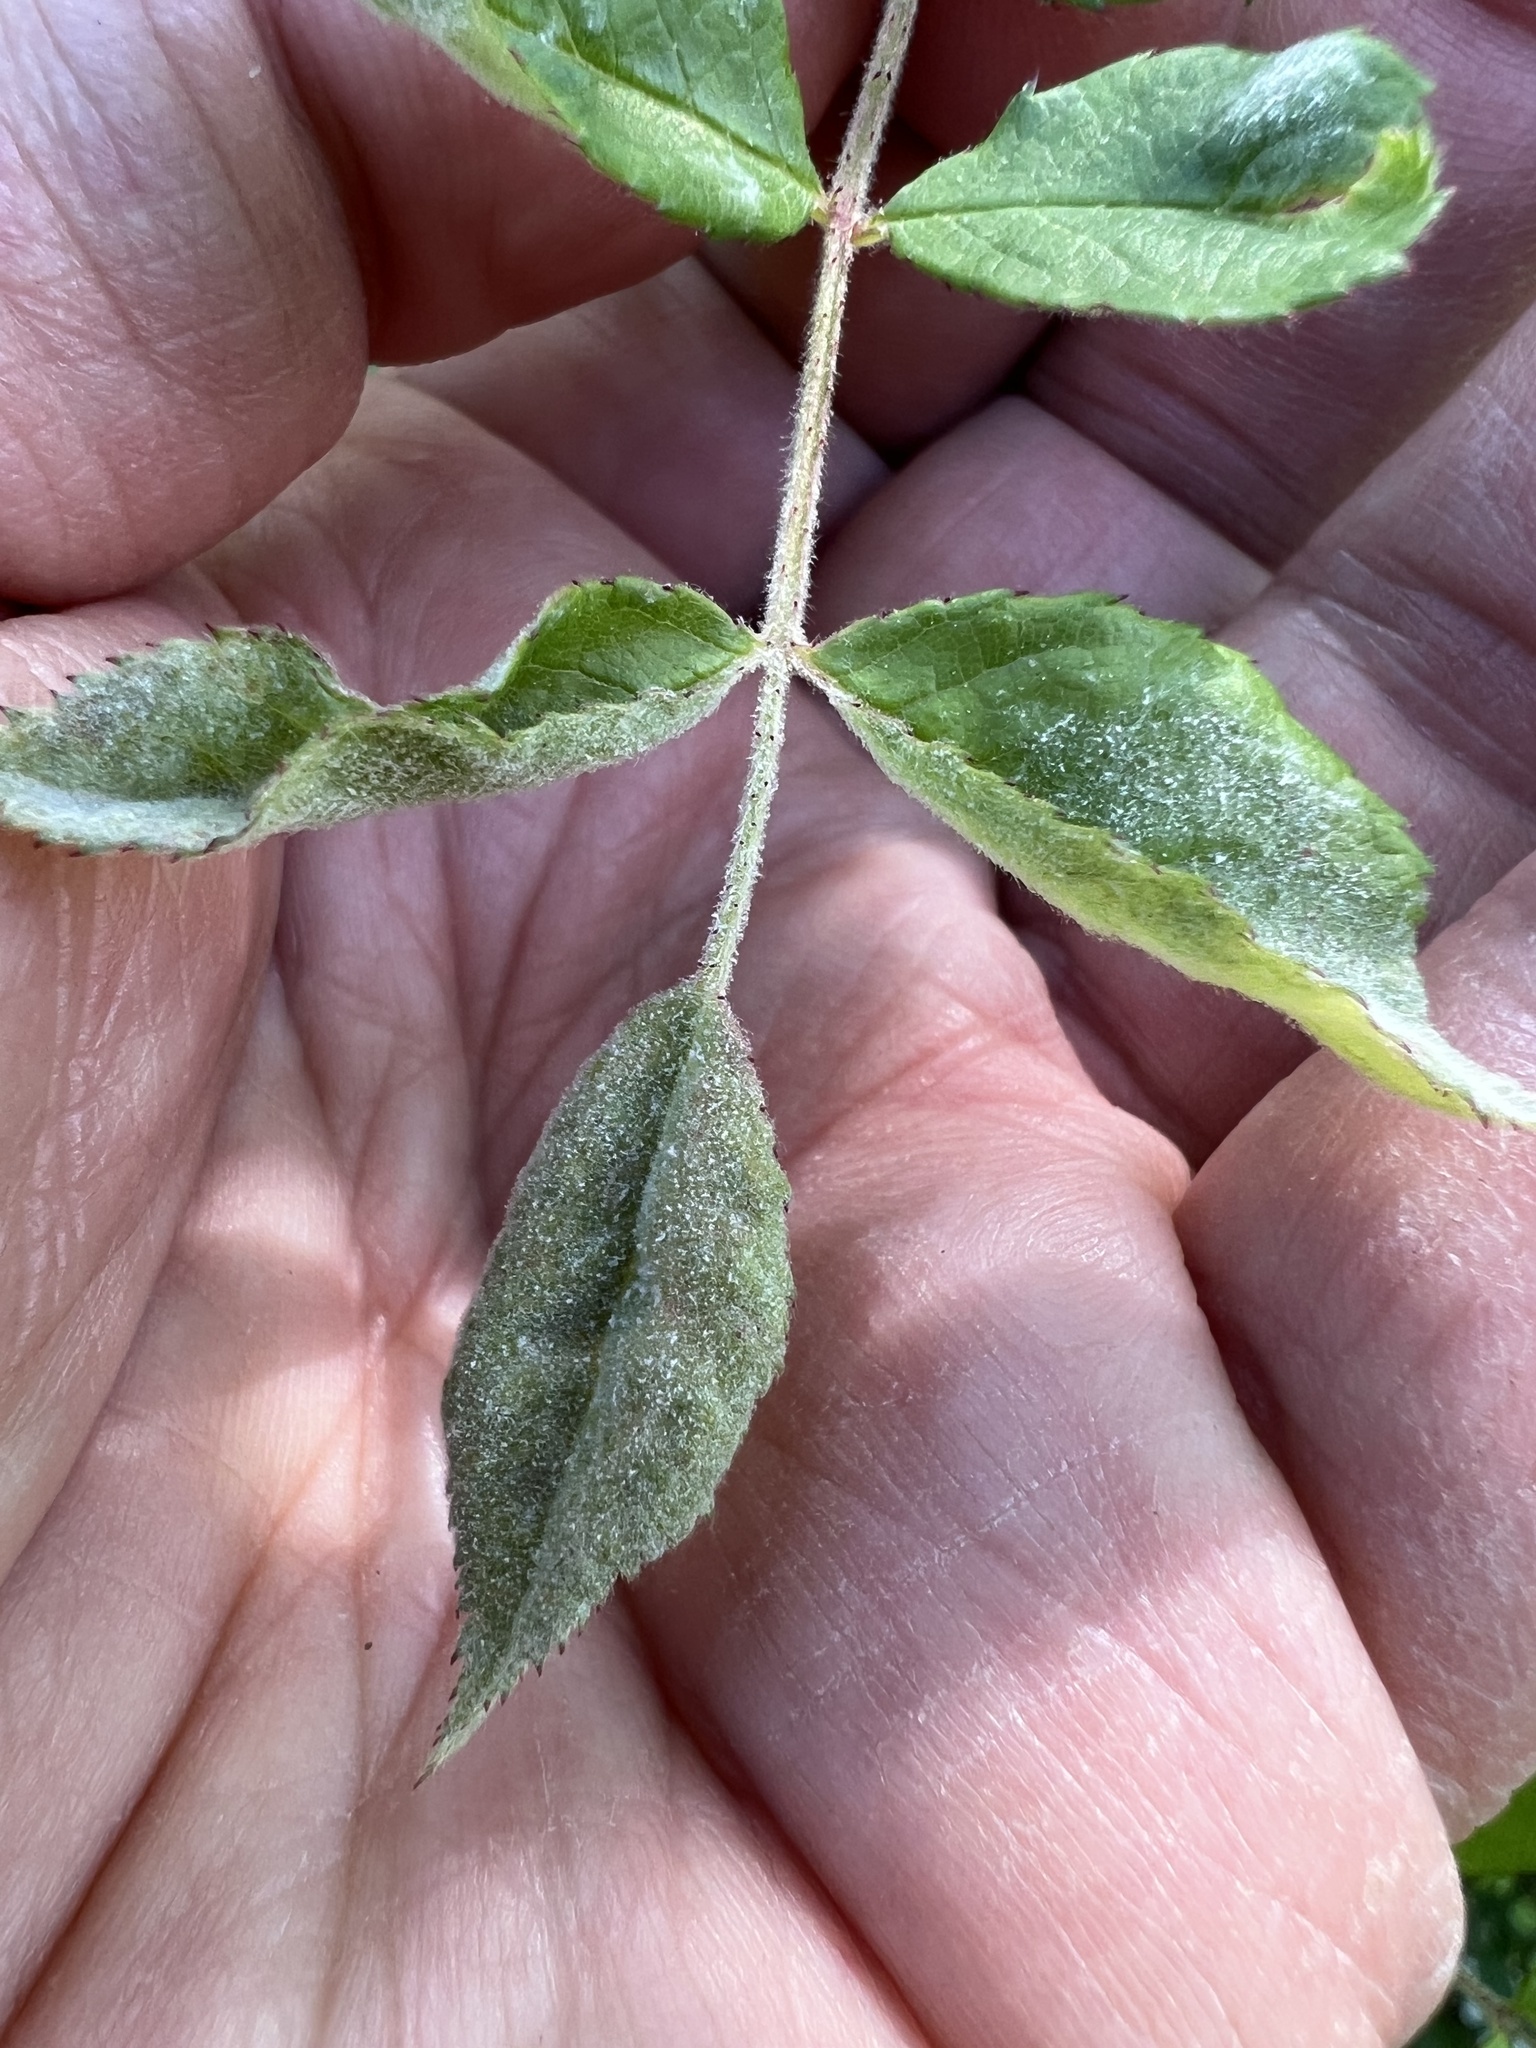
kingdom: Fungi
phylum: Ascomycota
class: Leotiomycetes
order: Helotiales
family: Erysiphaceae
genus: Podosphaera
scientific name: Podosphaera pannosa
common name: Rose mildew
